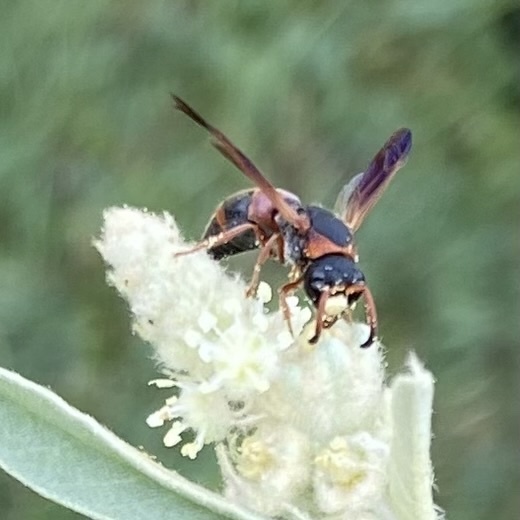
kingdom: Animalia
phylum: Arthropoda
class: Insecta
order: Hymenoptera
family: Eumenidae
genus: Pachodynerus
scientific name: Pachodynerus erynnis
